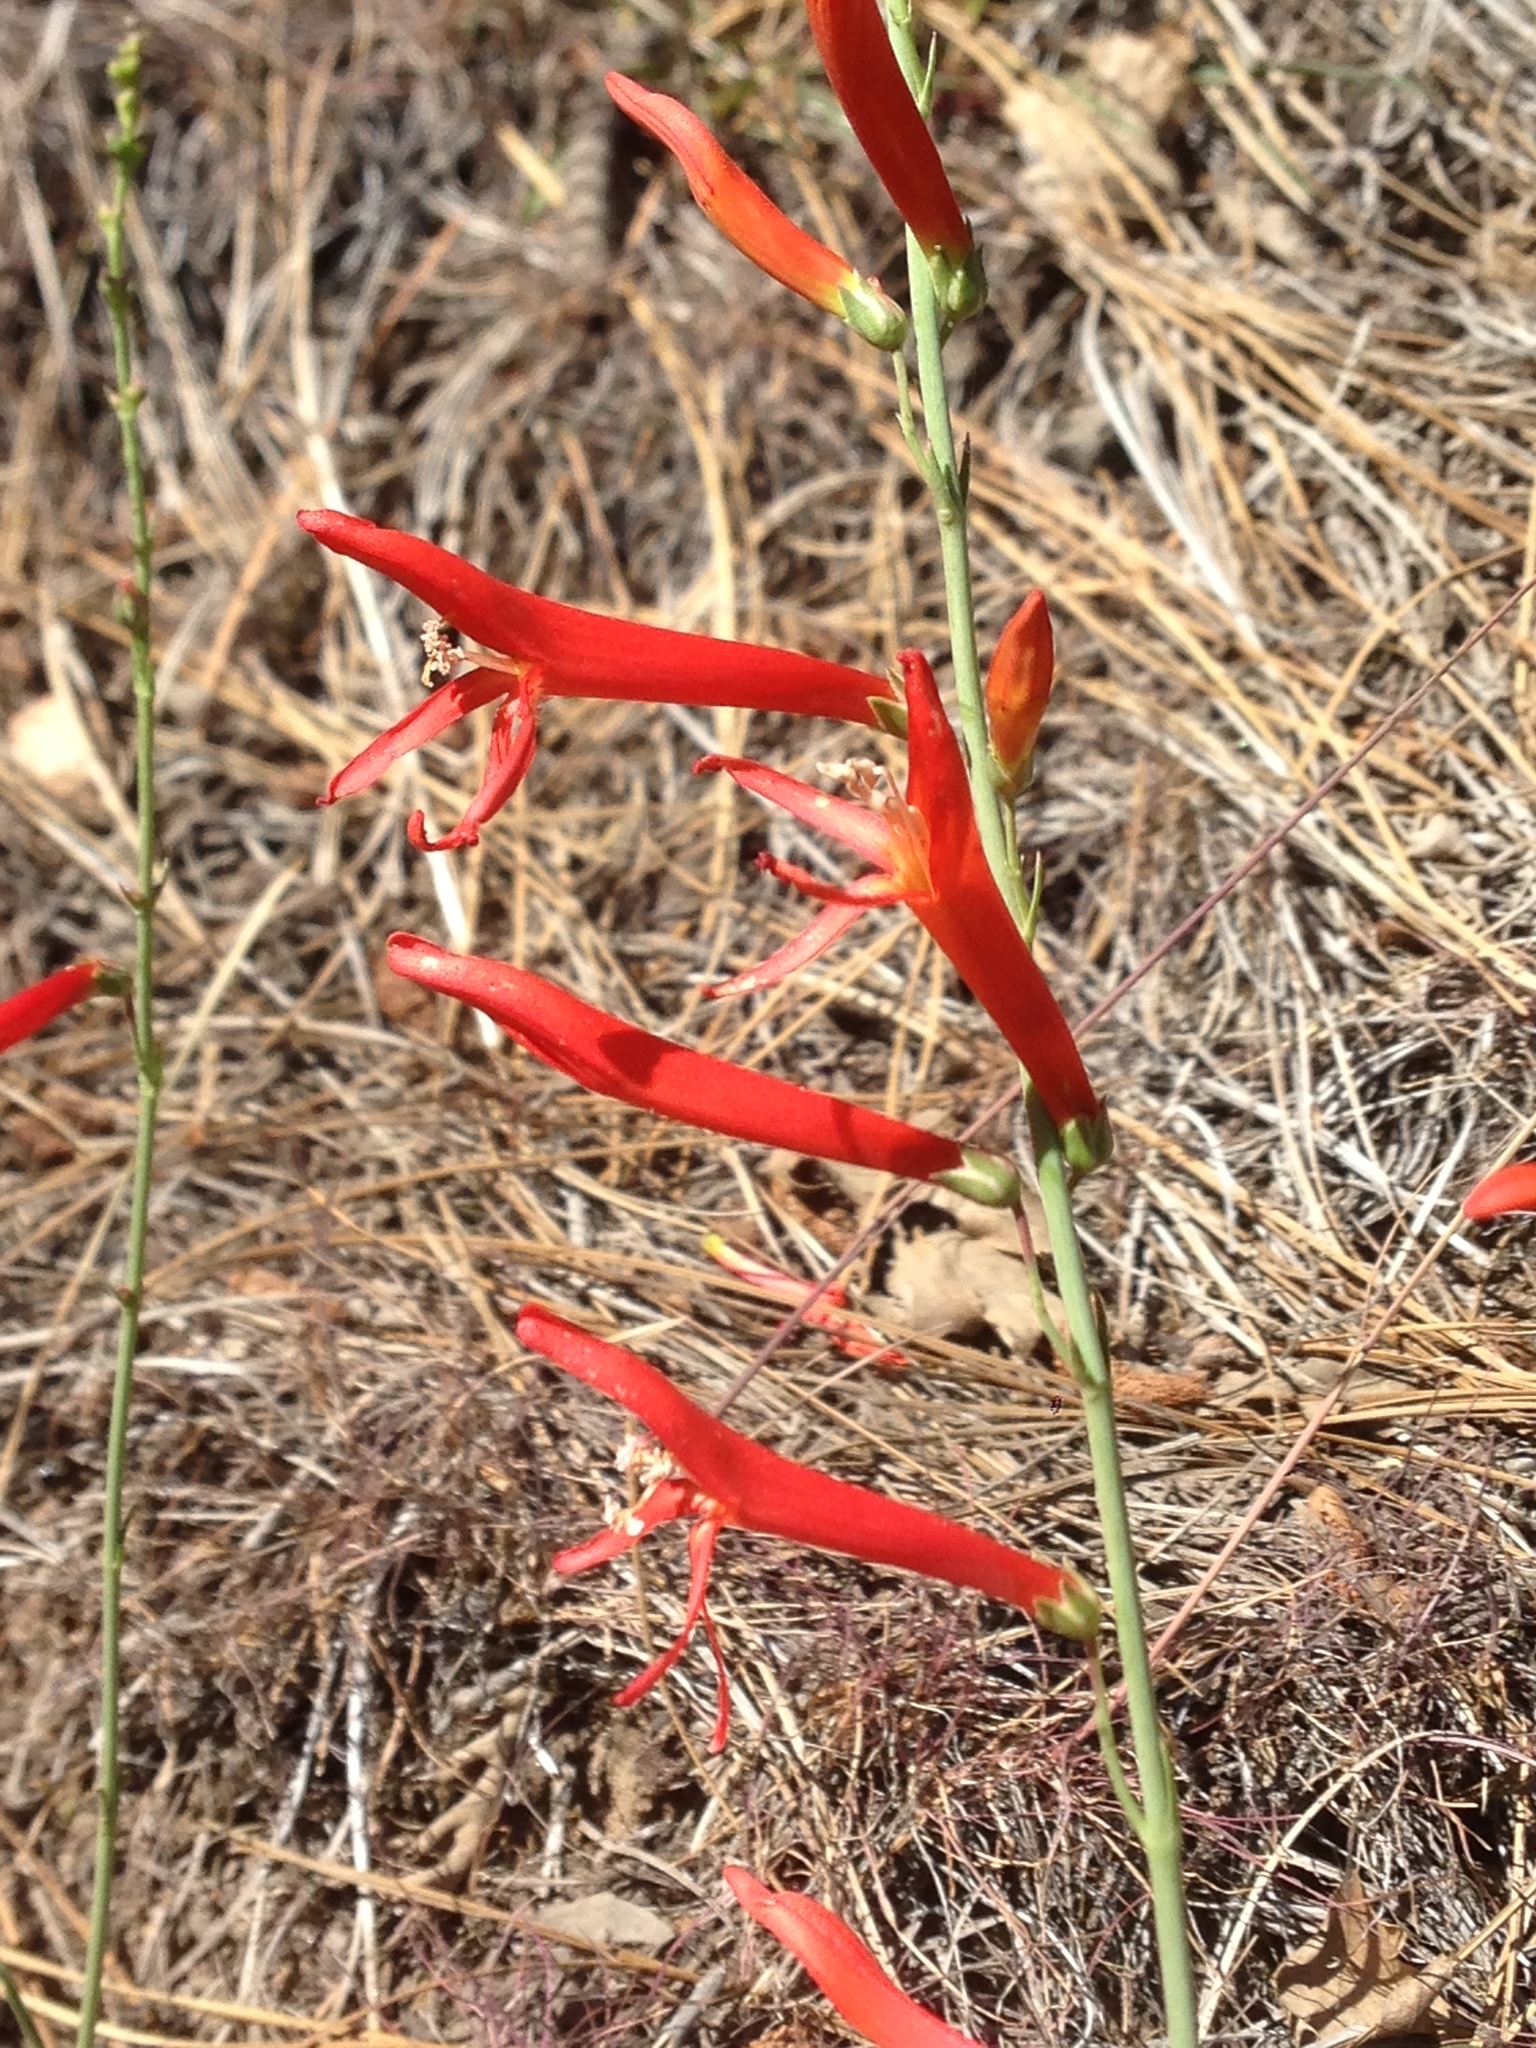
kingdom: Plantae
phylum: Tracheophyta
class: Magnoliopsida
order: Lamiales
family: Plantaginaceae
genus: Penstemon
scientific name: Penstemon labrosus
